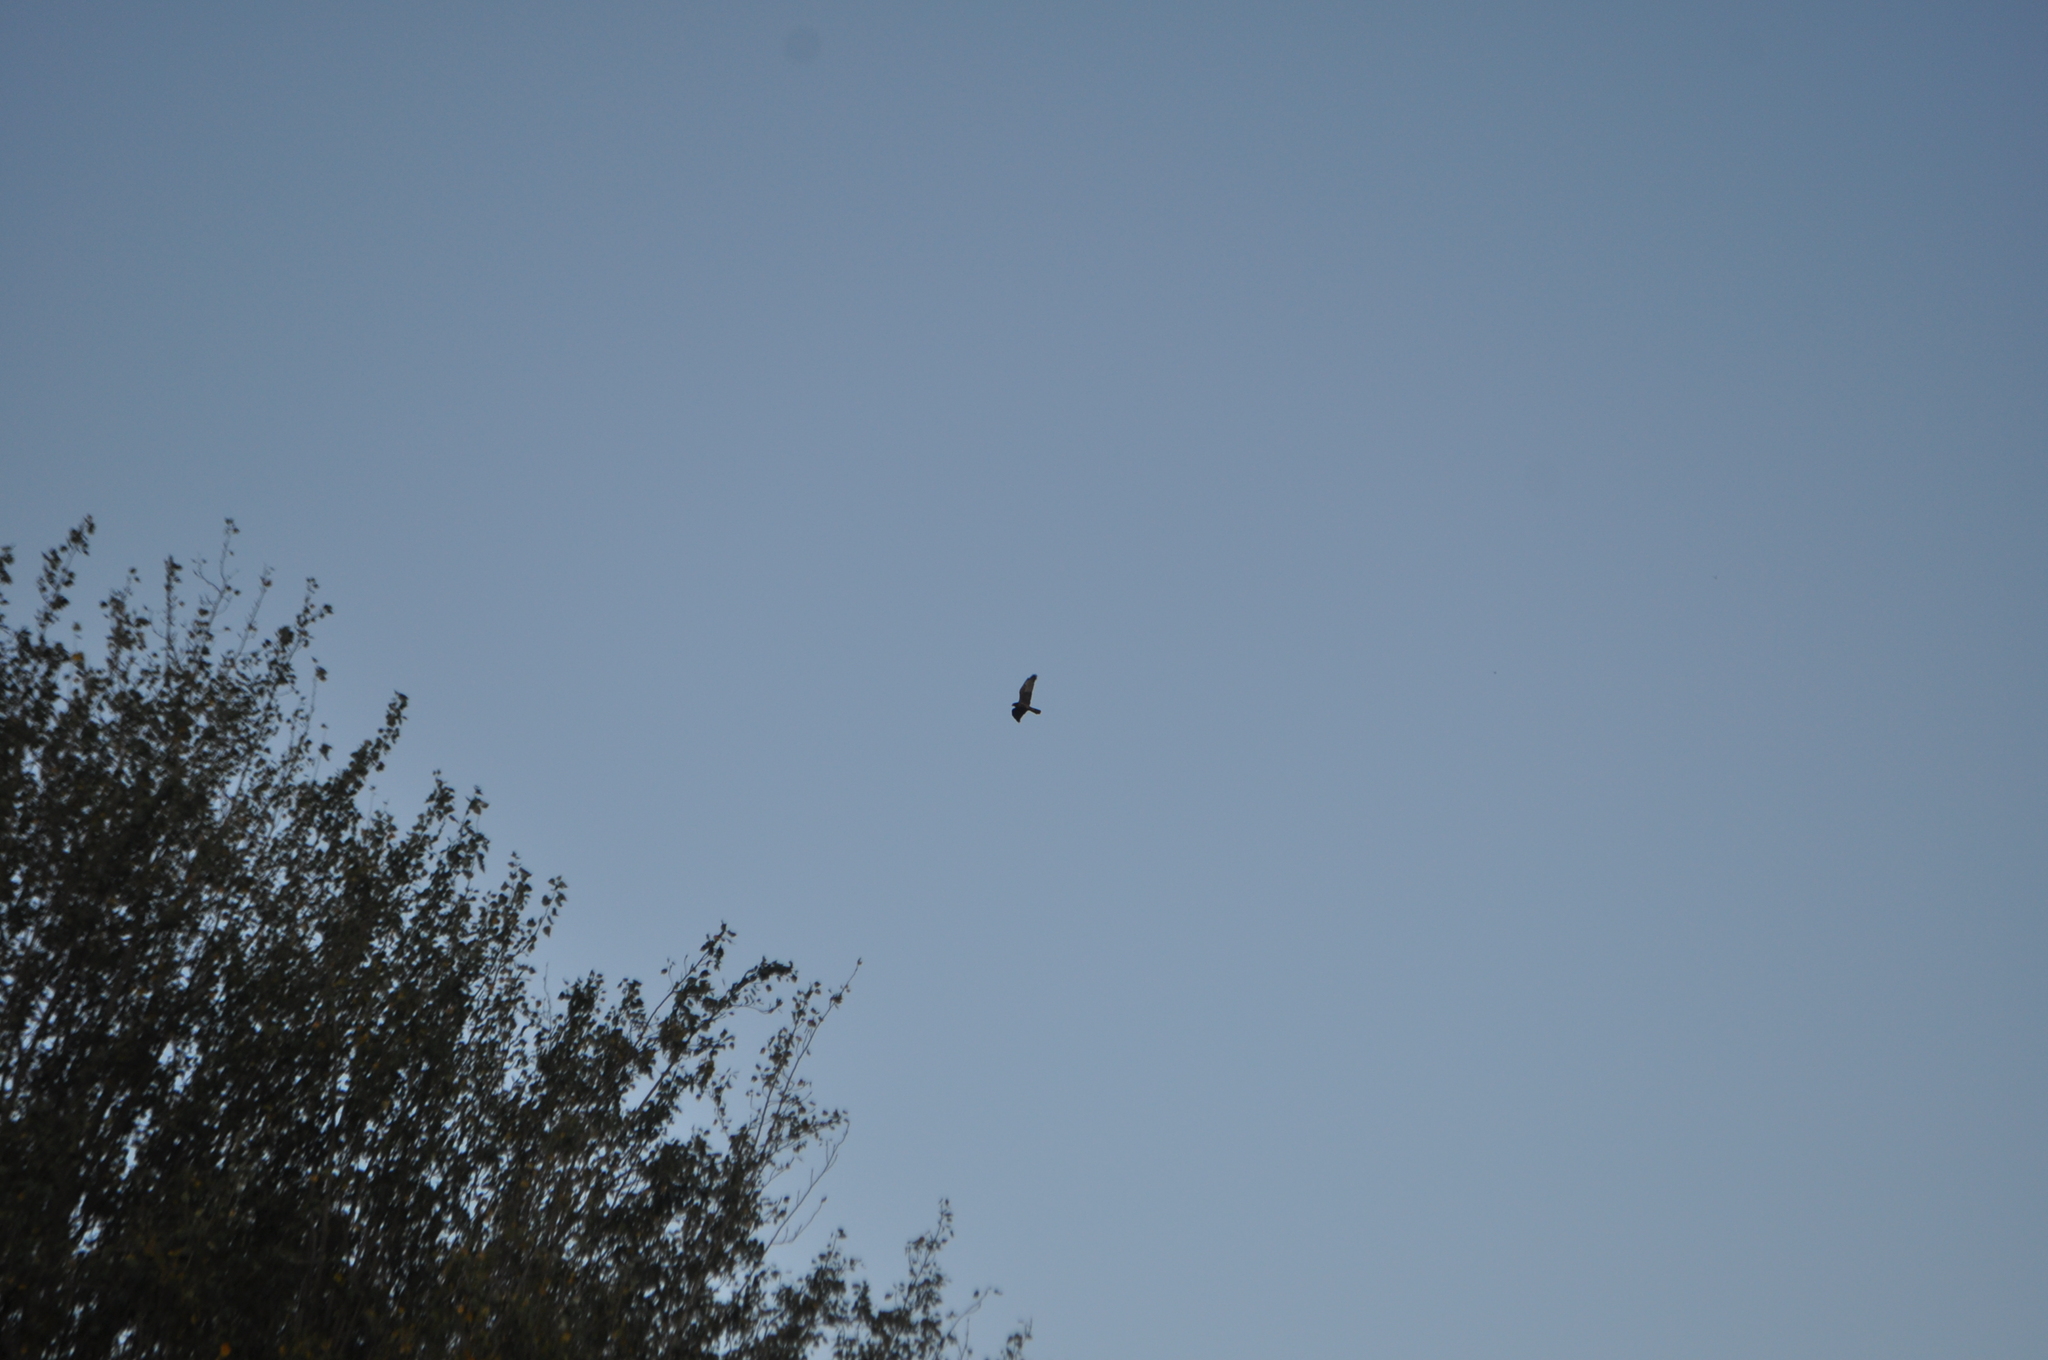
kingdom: Animalia
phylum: Chordata
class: Aves
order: Accipitriformes
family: Accipitridae
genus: Circus
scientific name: Circus approximans
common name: Swamp harrier
